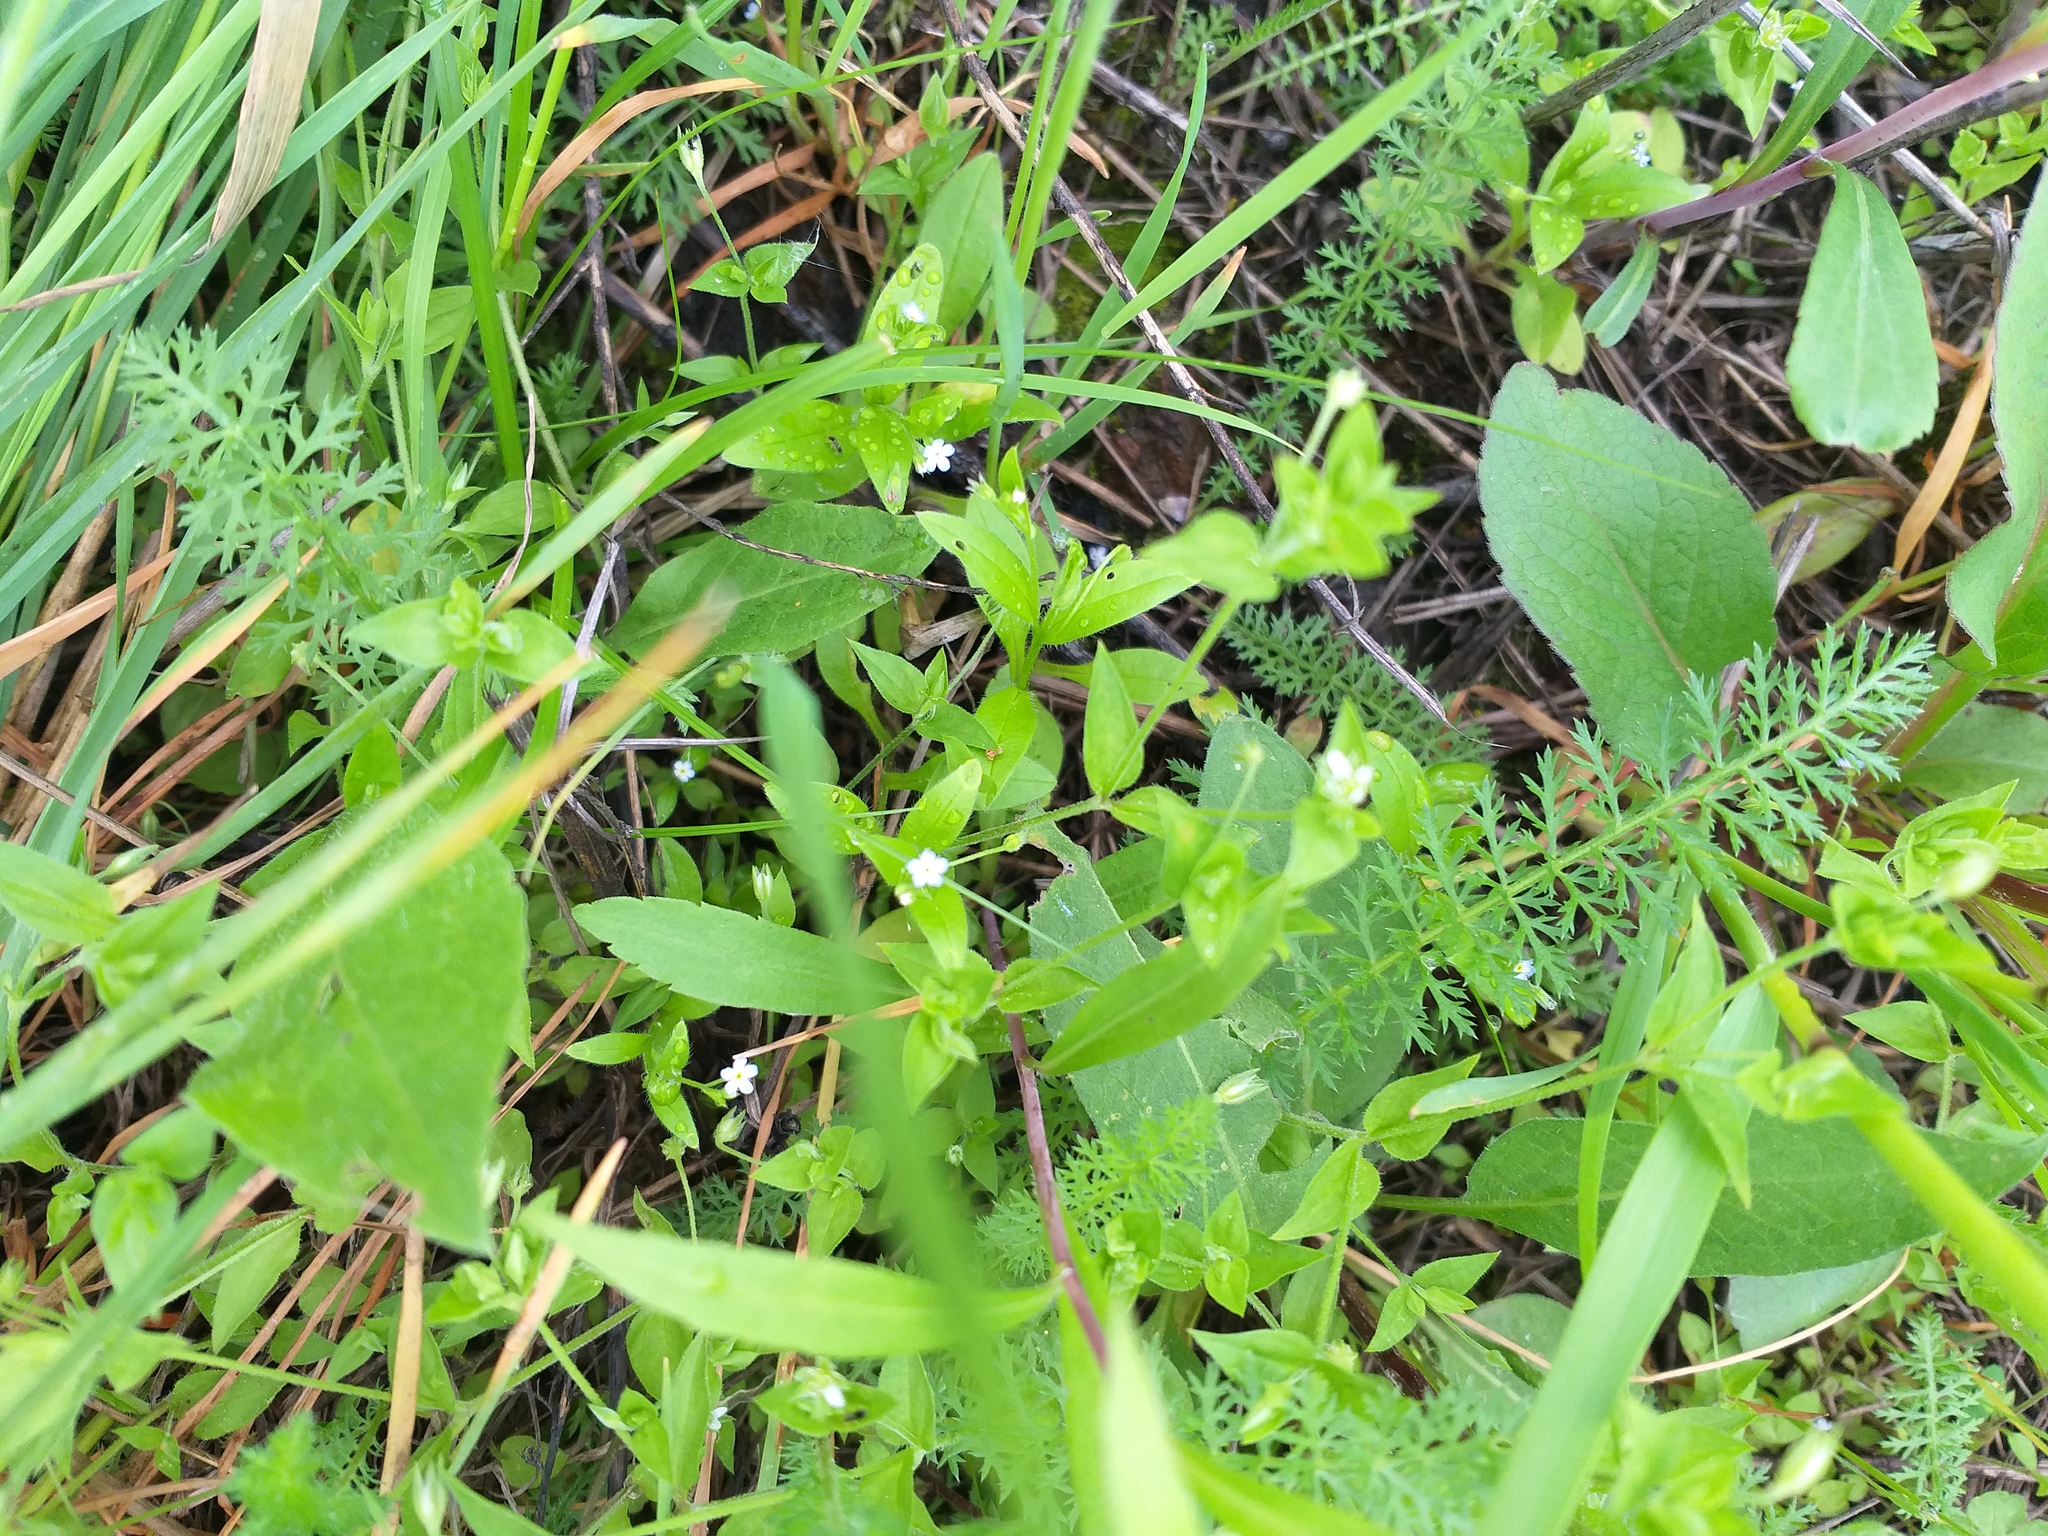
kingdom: Plantae
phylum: Tracheophyta
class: Magnoliopsida
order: Boraginales
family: Boraginaceae
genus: Myosotis
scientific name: Myosotis sparsiflora
